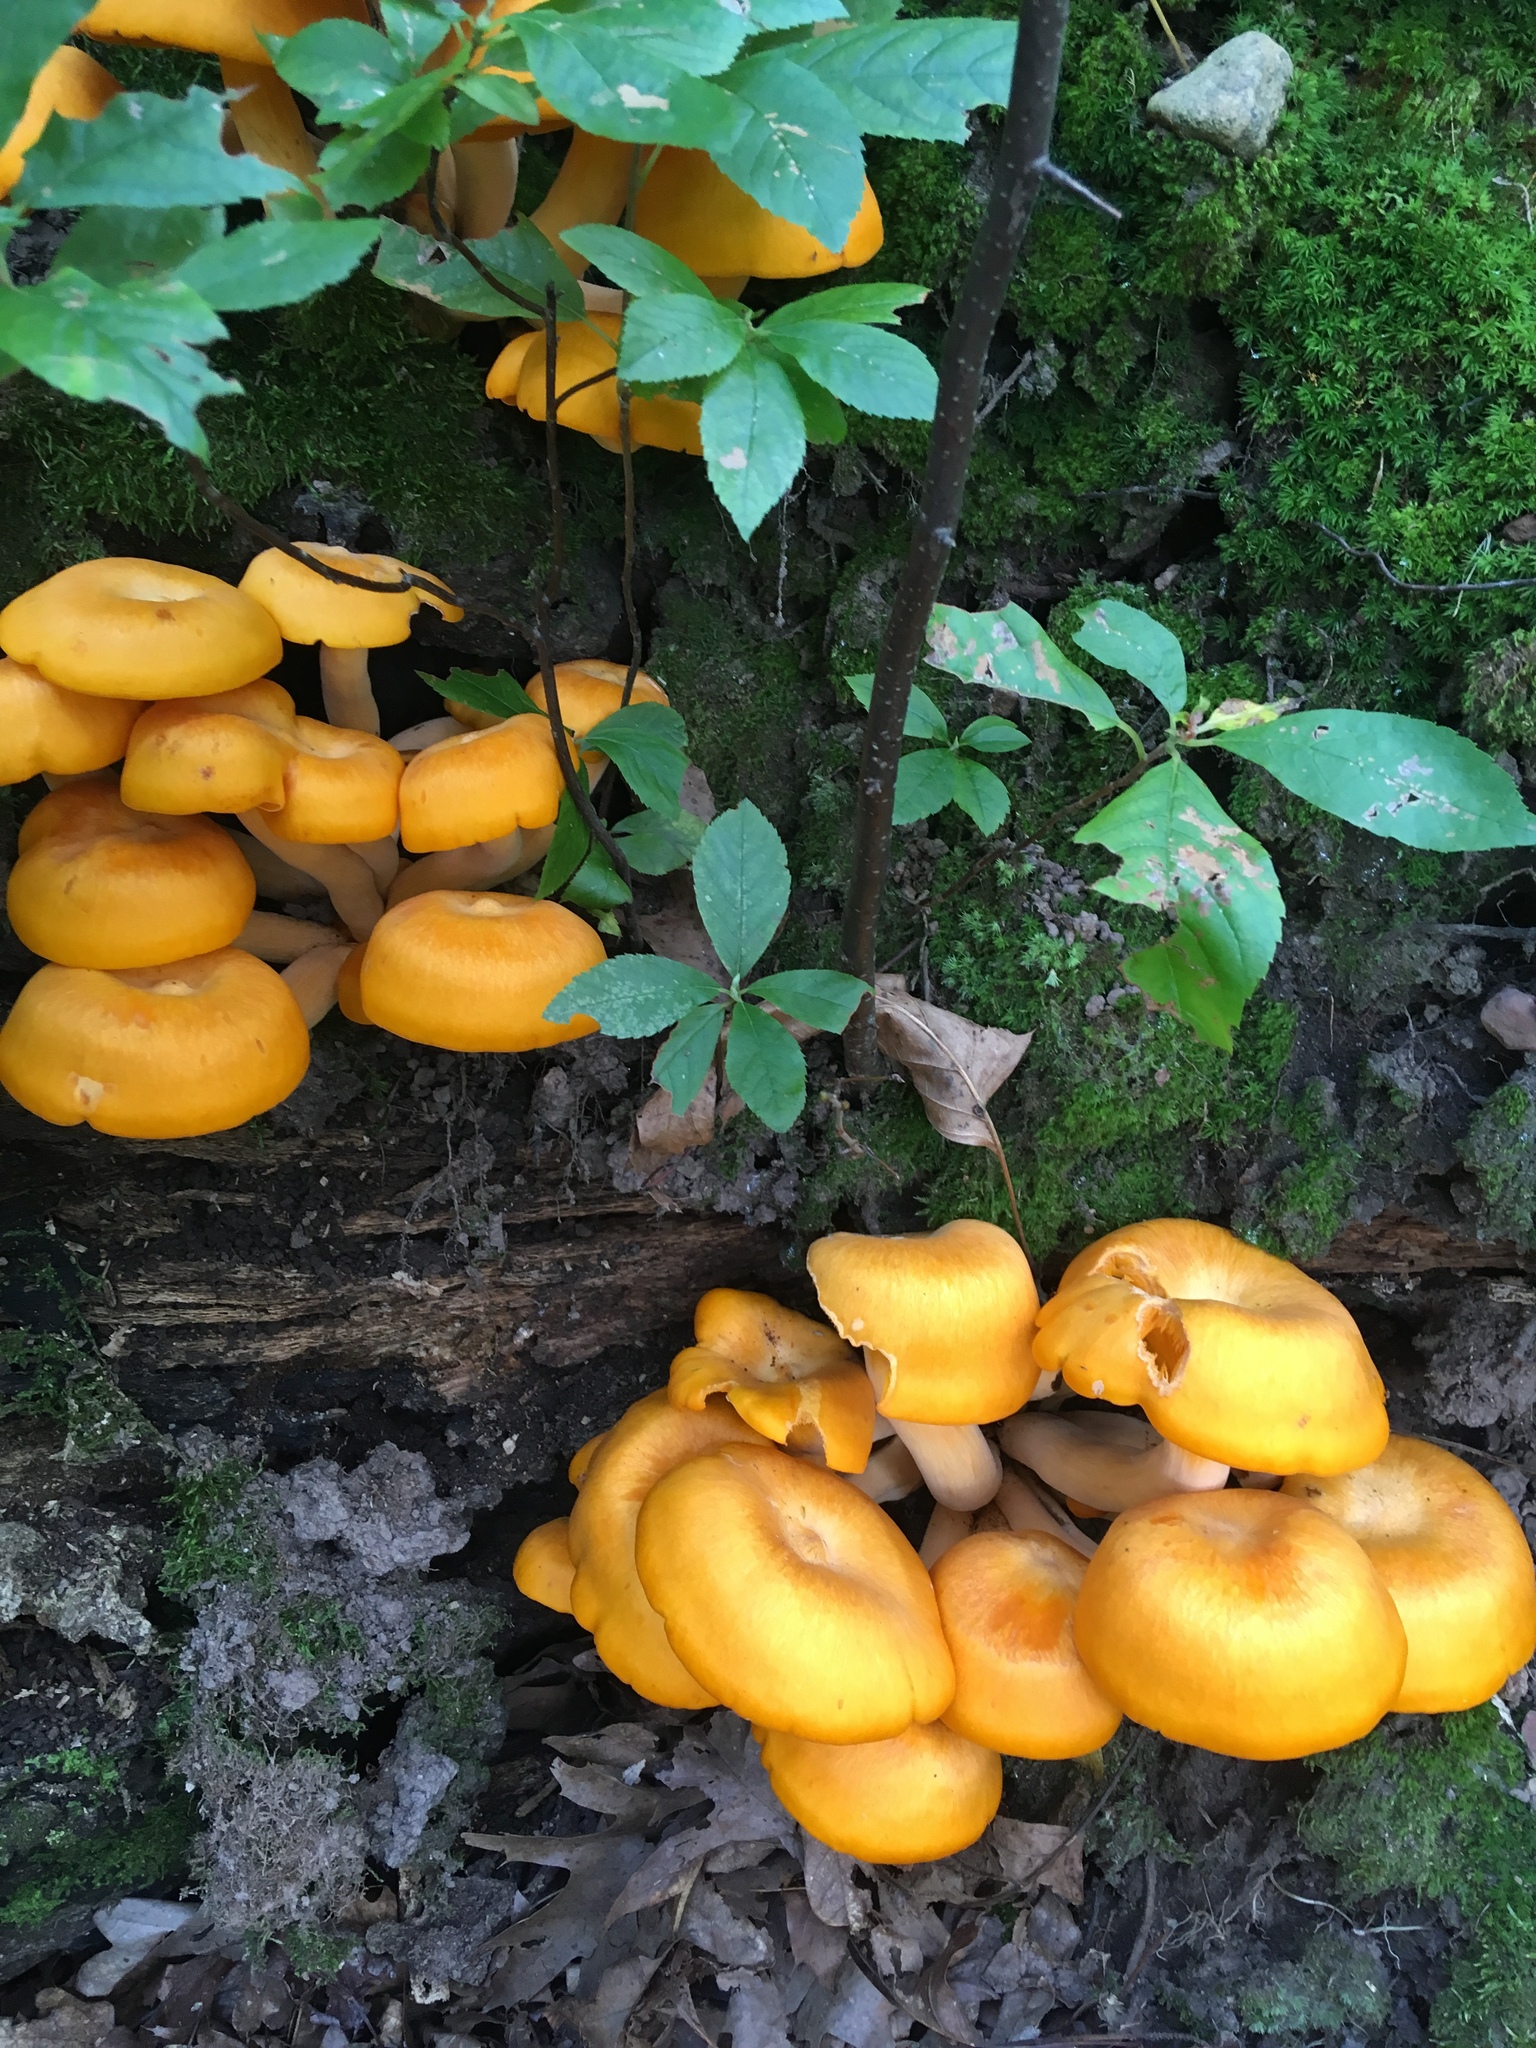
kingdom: Fungi
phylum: Basidiomycota
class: Agaricomycetes
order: Agaricales
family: Omphalotaceae
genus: Omphalotus
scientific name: Omphalotus illudens
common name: Jack o lantern
